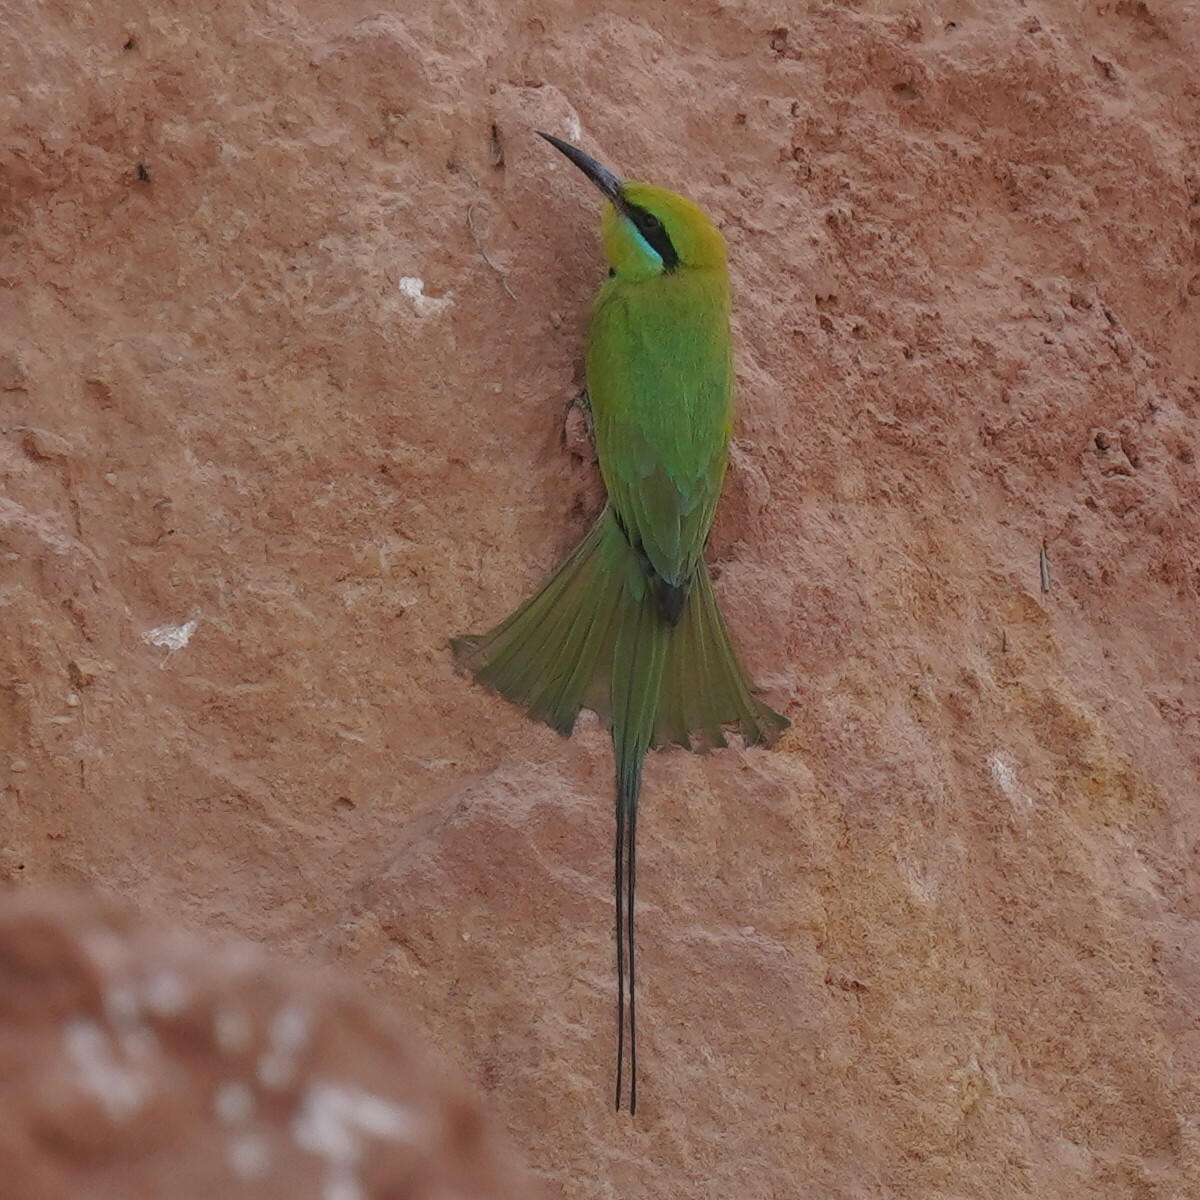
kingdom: Animalia
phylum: Chordata
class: Aves
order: Coraciiformes
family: Meropidae
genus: Merops
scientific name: Merops viridissimus
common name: African green bee-eater
